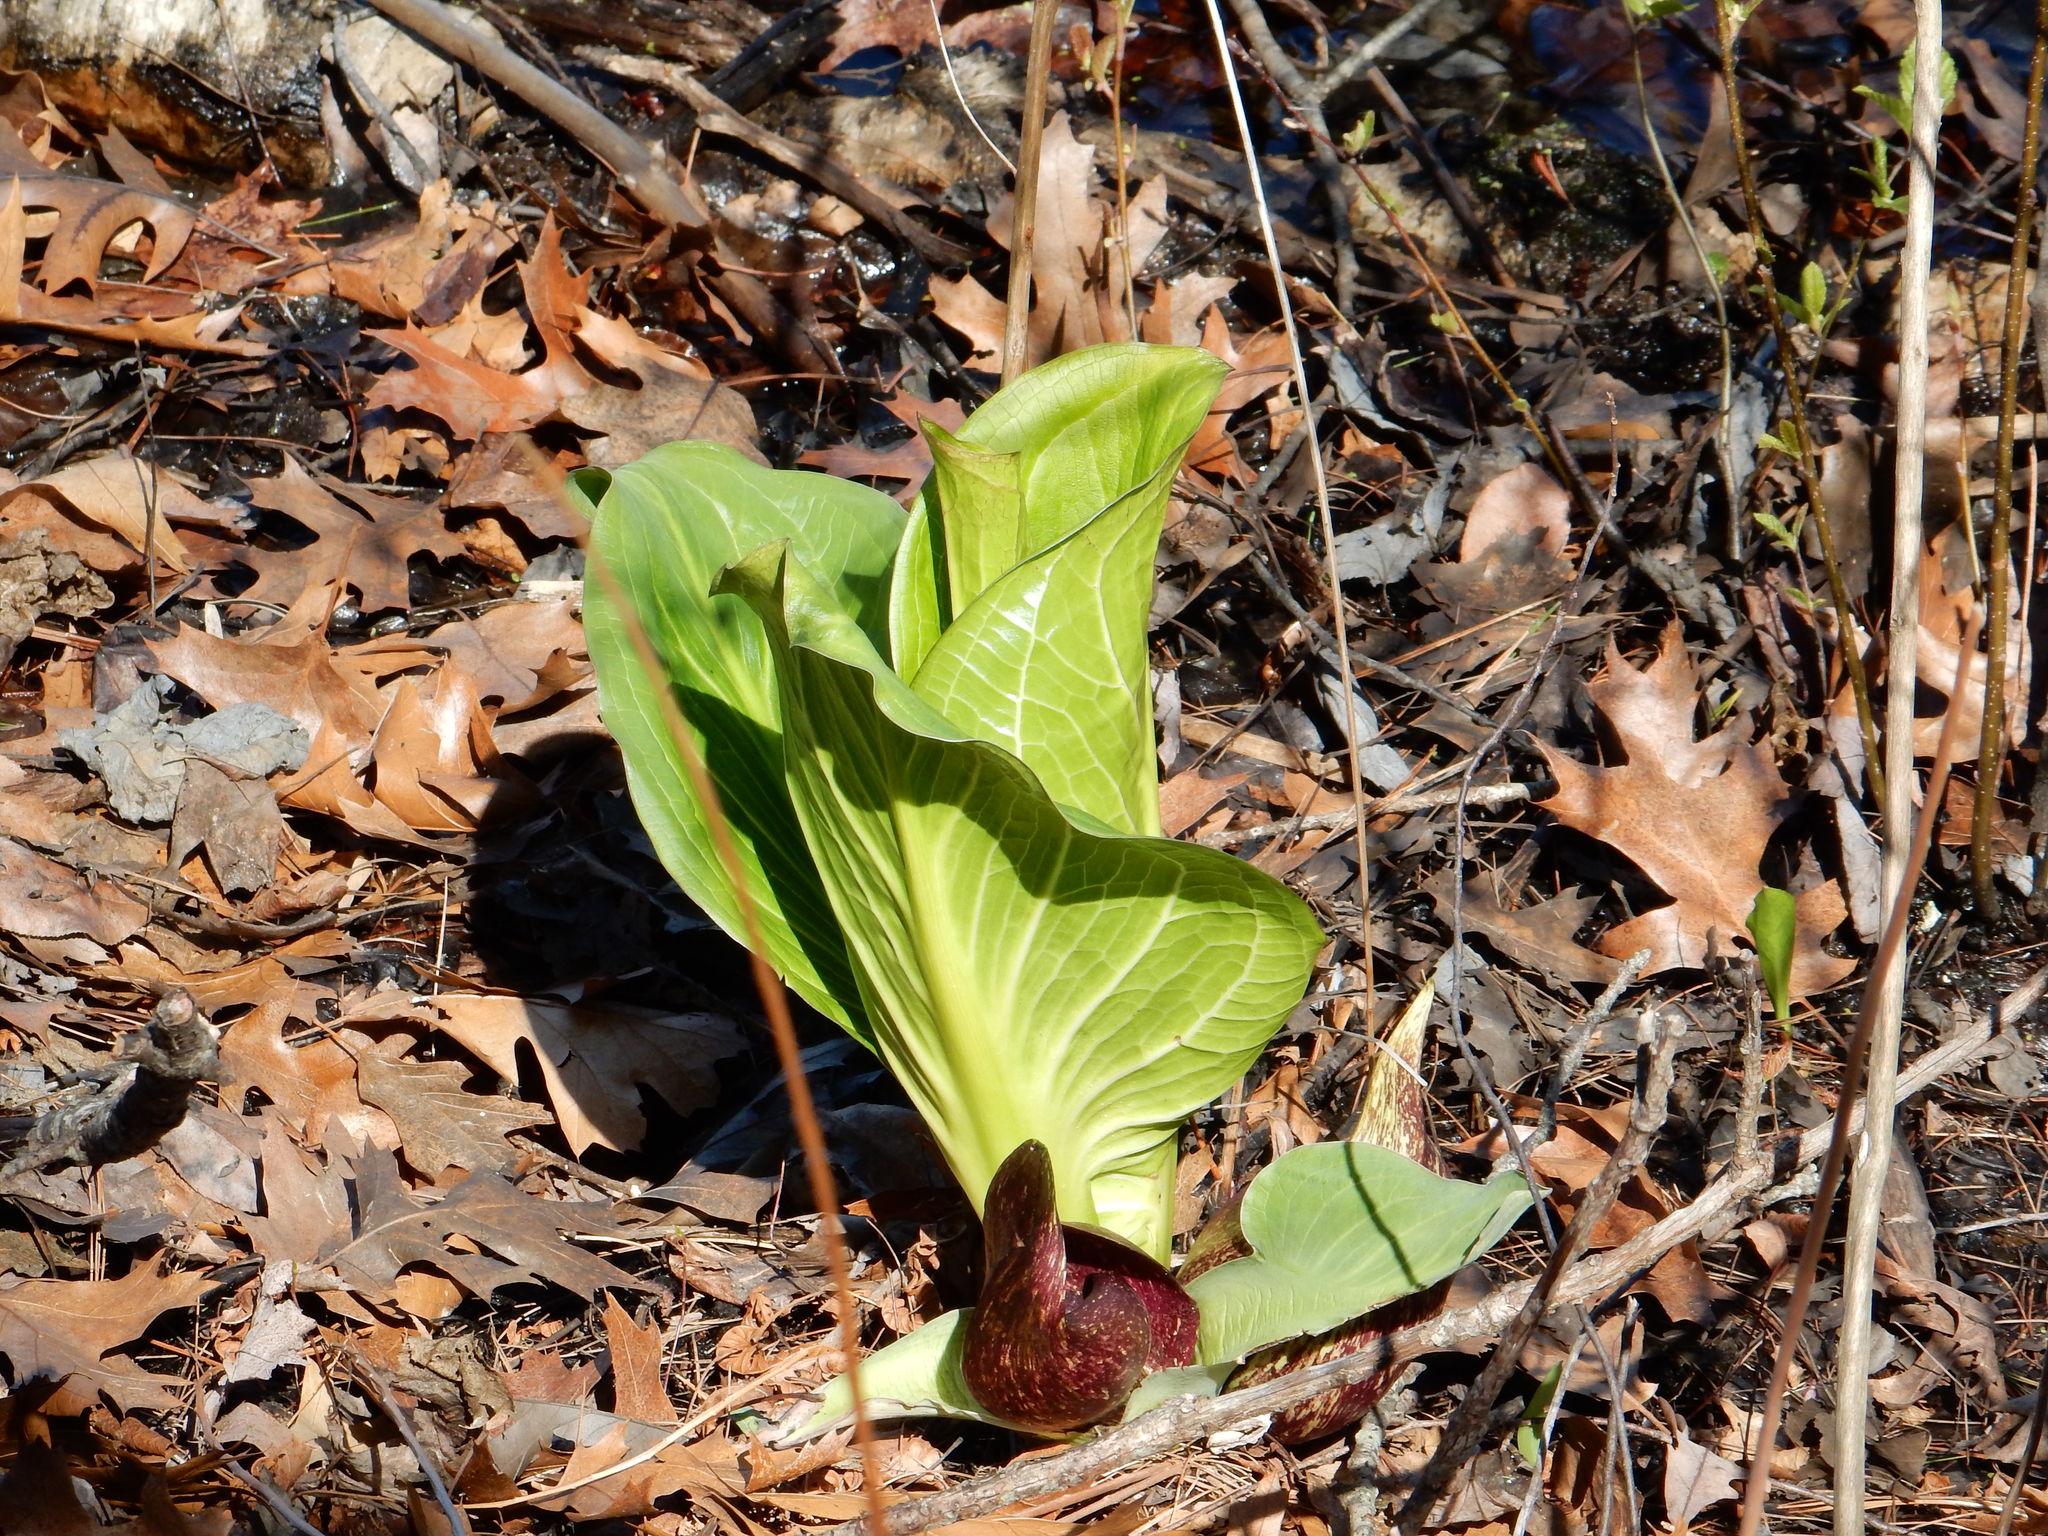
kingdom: Plantae
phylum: Tracheophyta
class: Liliopsida
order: Alismatales
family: Araceae
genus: Symplocarpus
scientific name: Symplocarpus foetidus
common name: Eastern skunk cabbage
